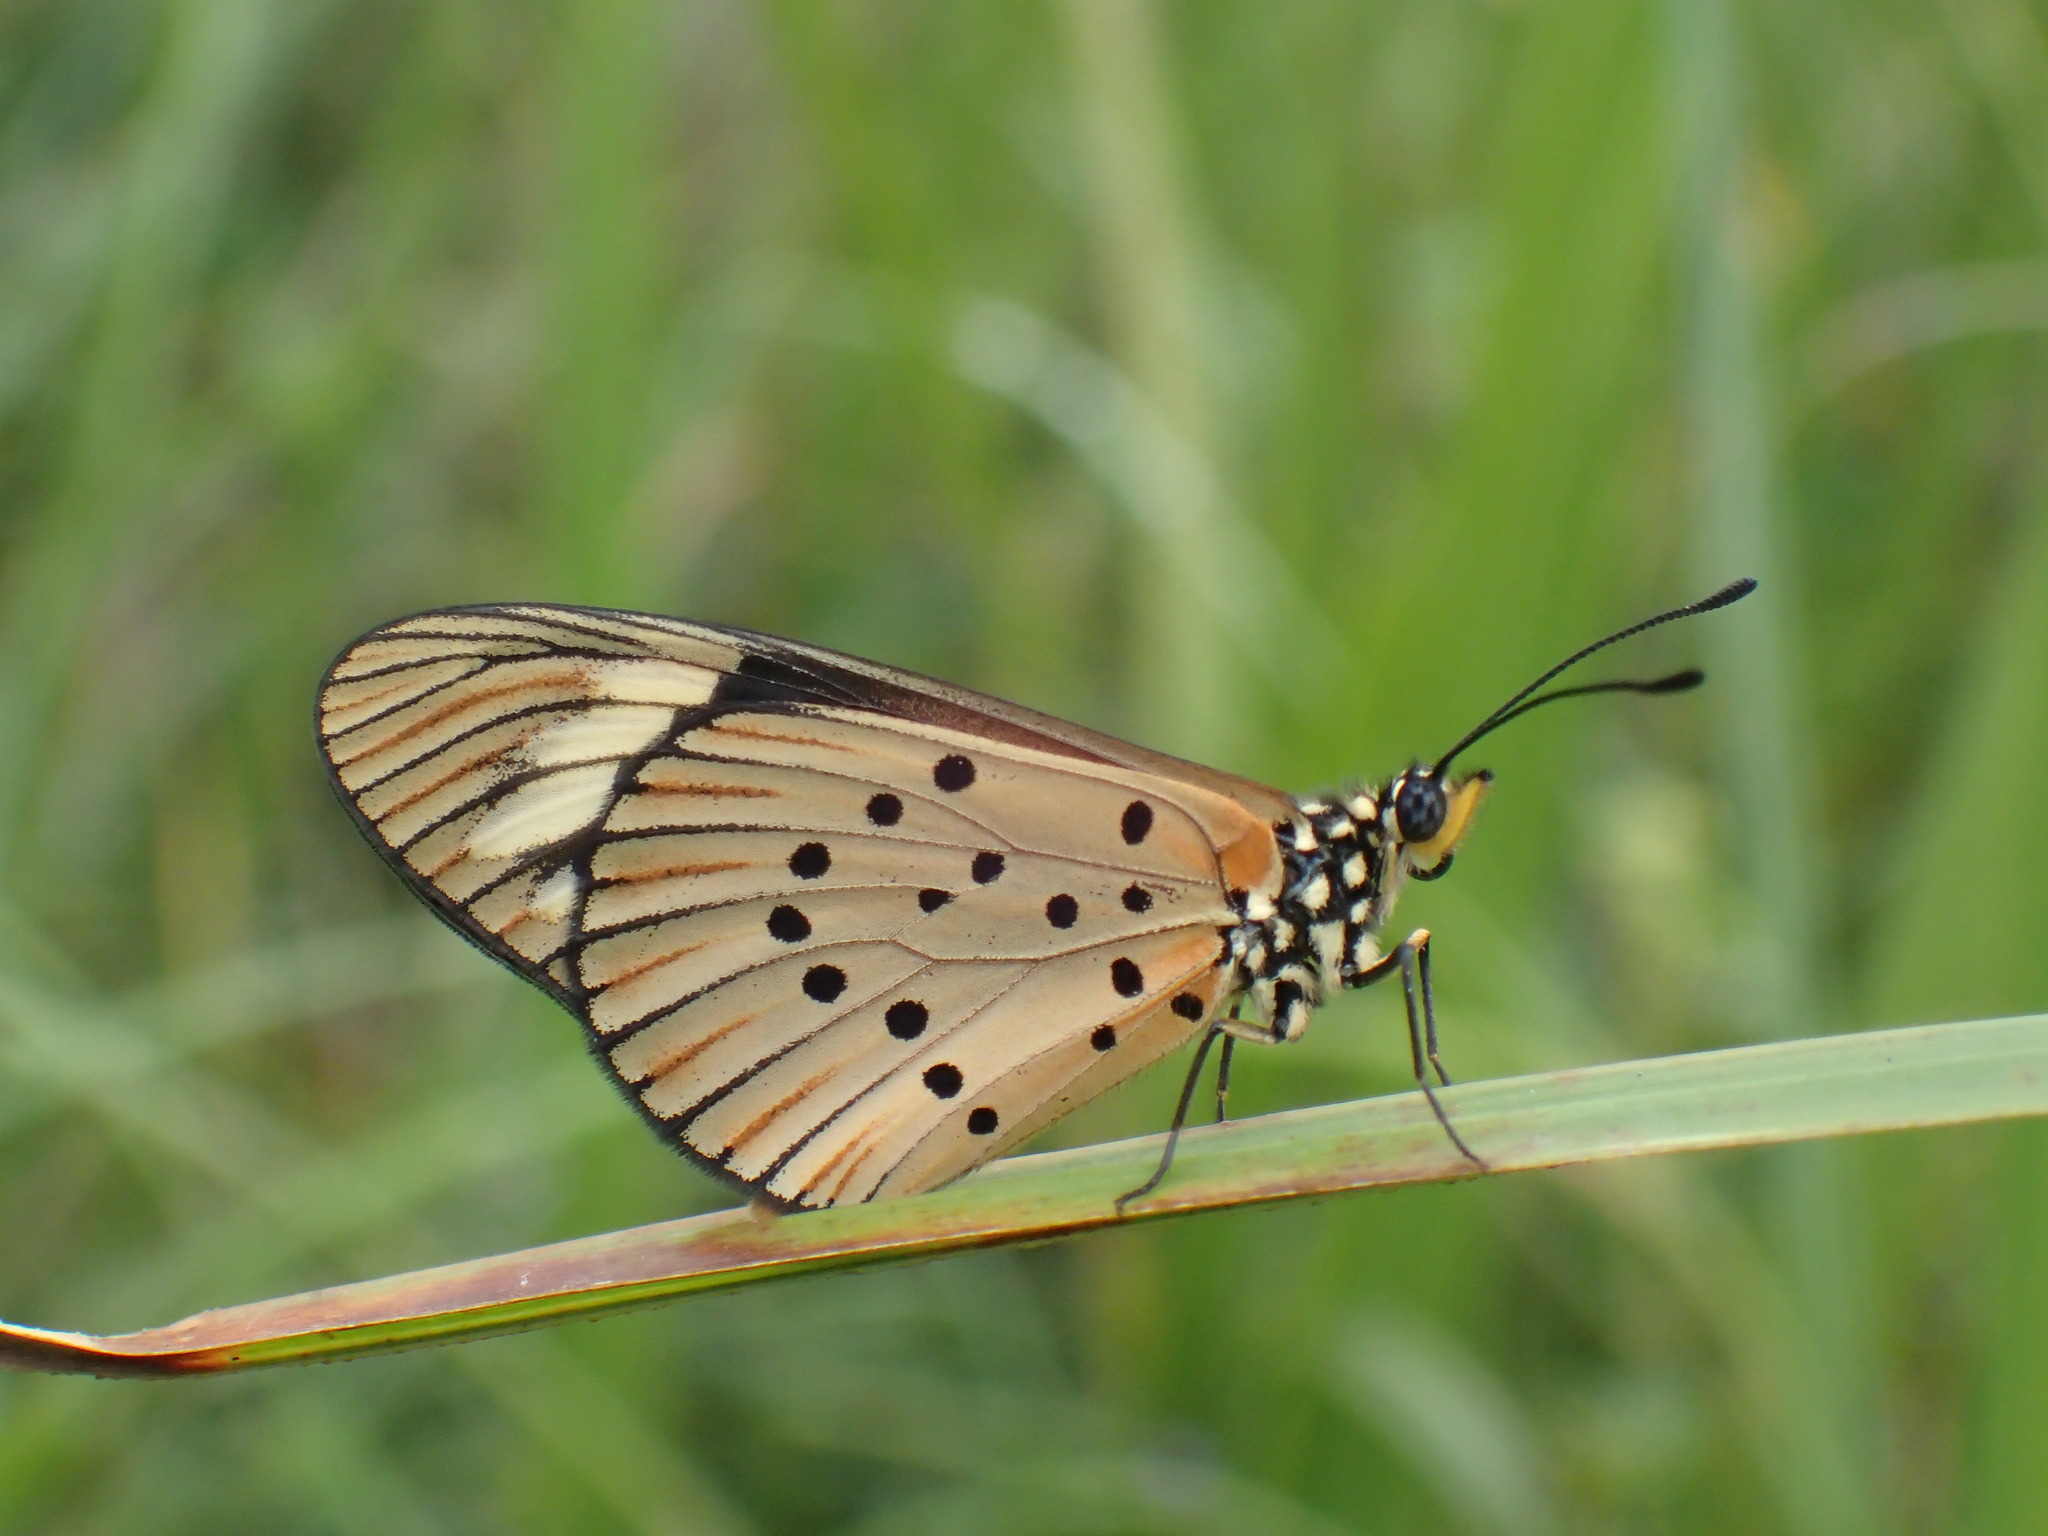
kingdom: Animalia
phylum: Arthropoda
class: Insecta
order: Lepidoptera
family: Nymphalidae
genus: Acraea
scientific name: Acraea Telchinia encedon
